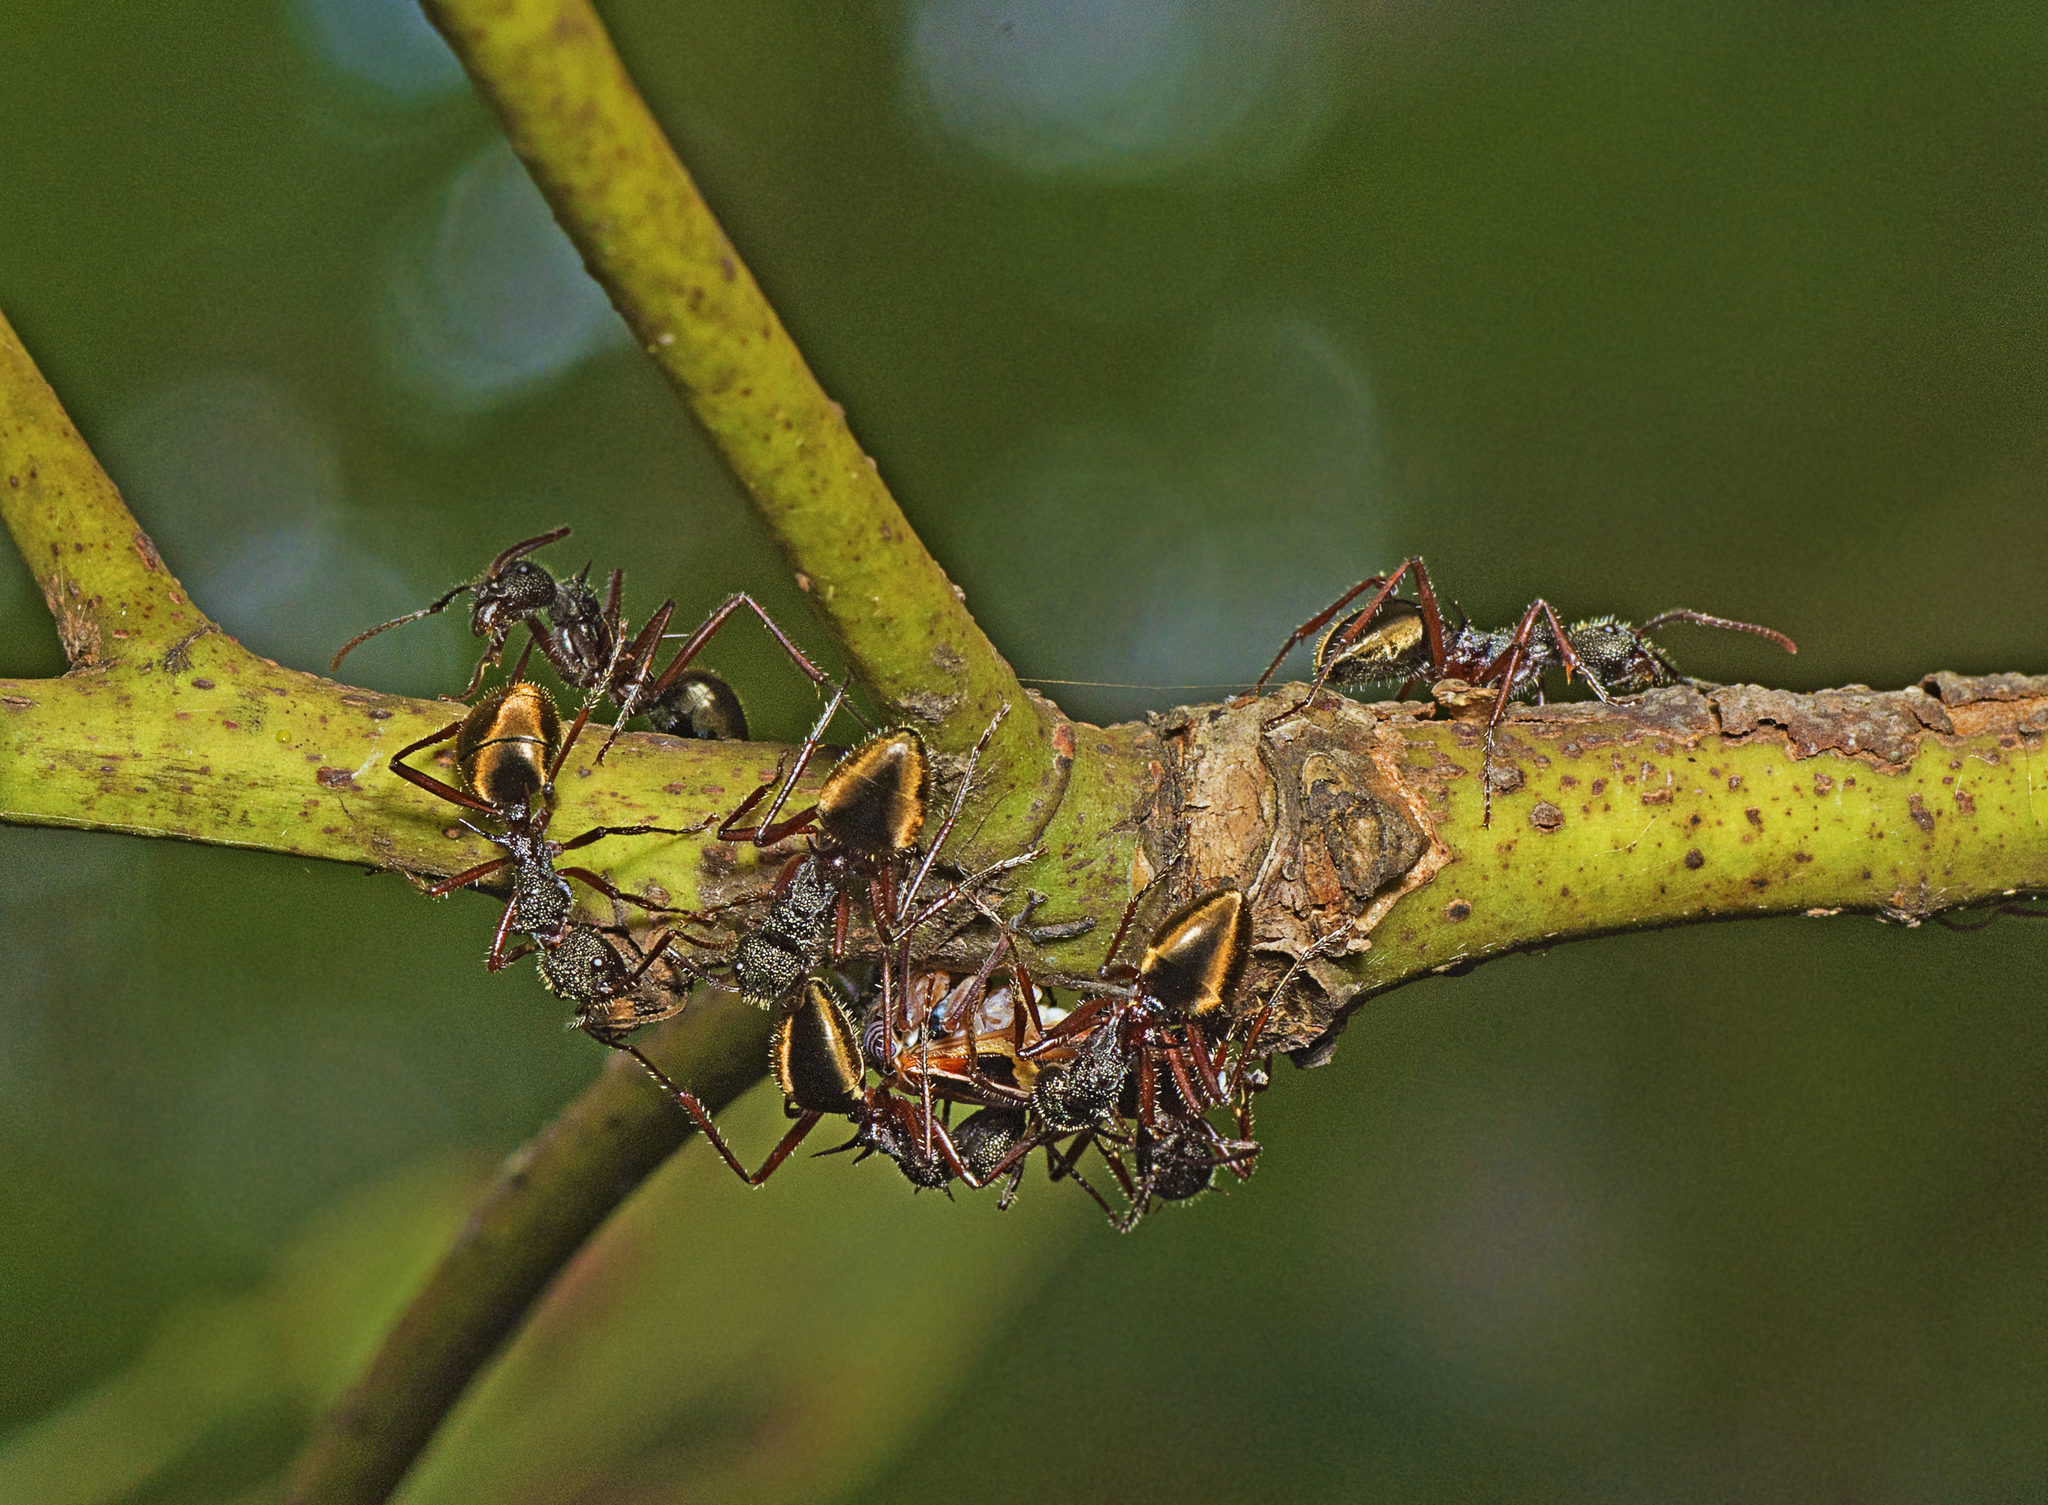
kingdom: Animalia
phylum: Arthropoda
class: Insecta
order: Hymenoptera
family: Formicidae
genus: Dolichoderus
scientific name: Dolichoderus extensispinus
